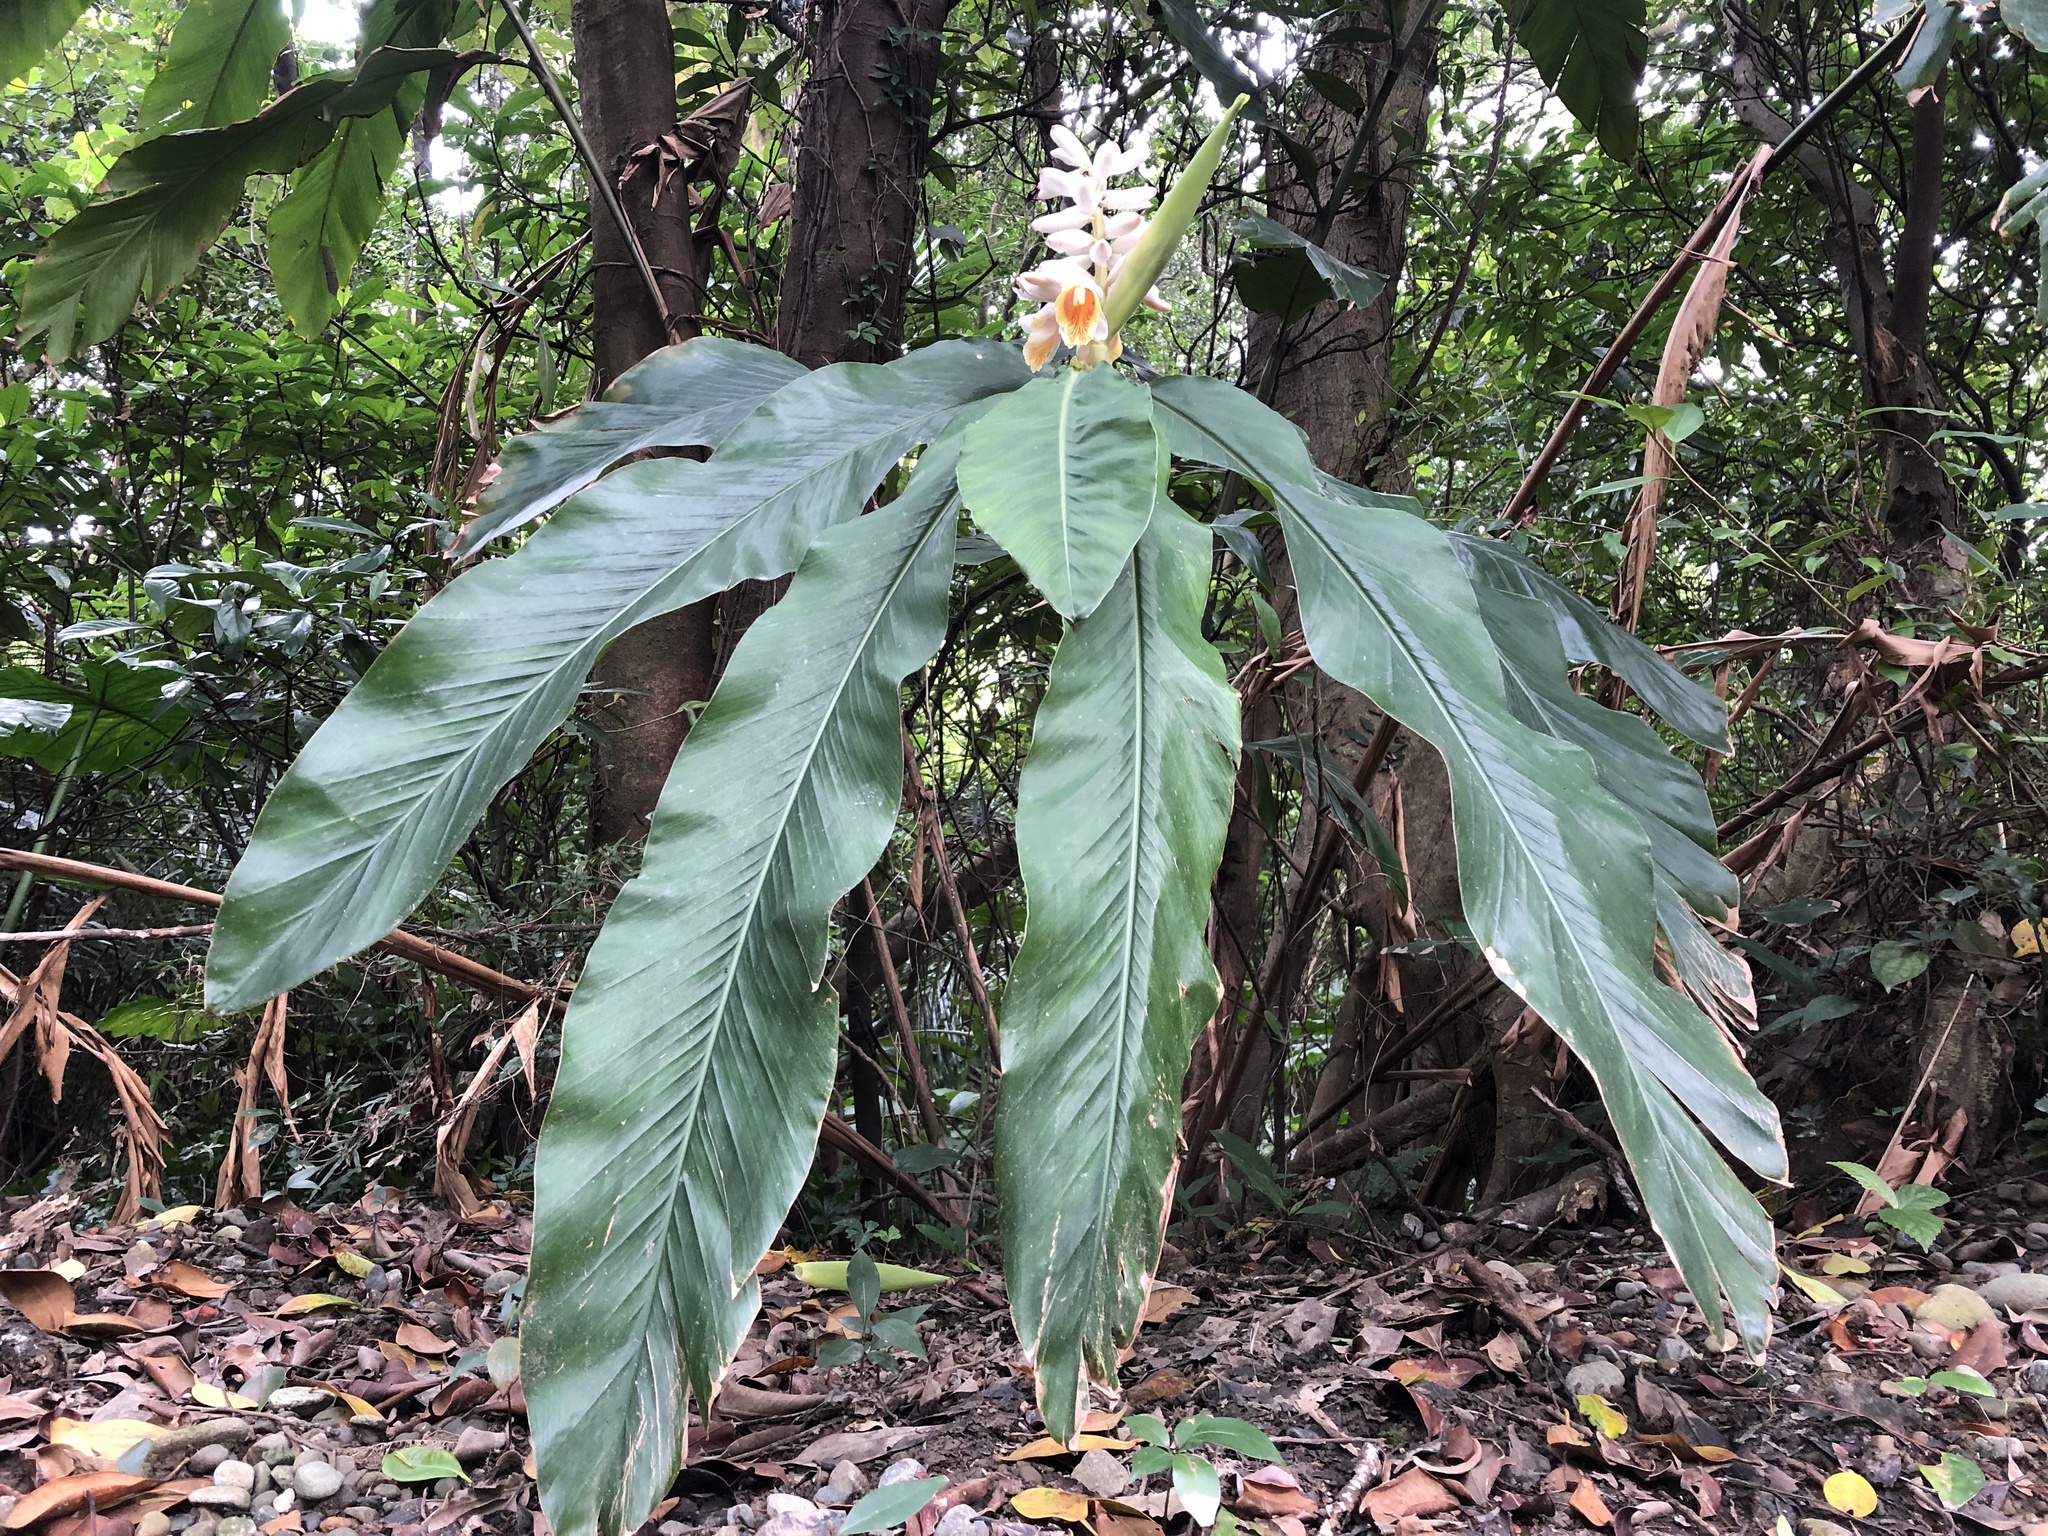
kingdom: Plantae
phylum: Tracheophyta
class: Liliopsida
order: Zingiberales
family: Zingiberaceae
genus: Alpinia
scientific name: Alpinia uraiensis
